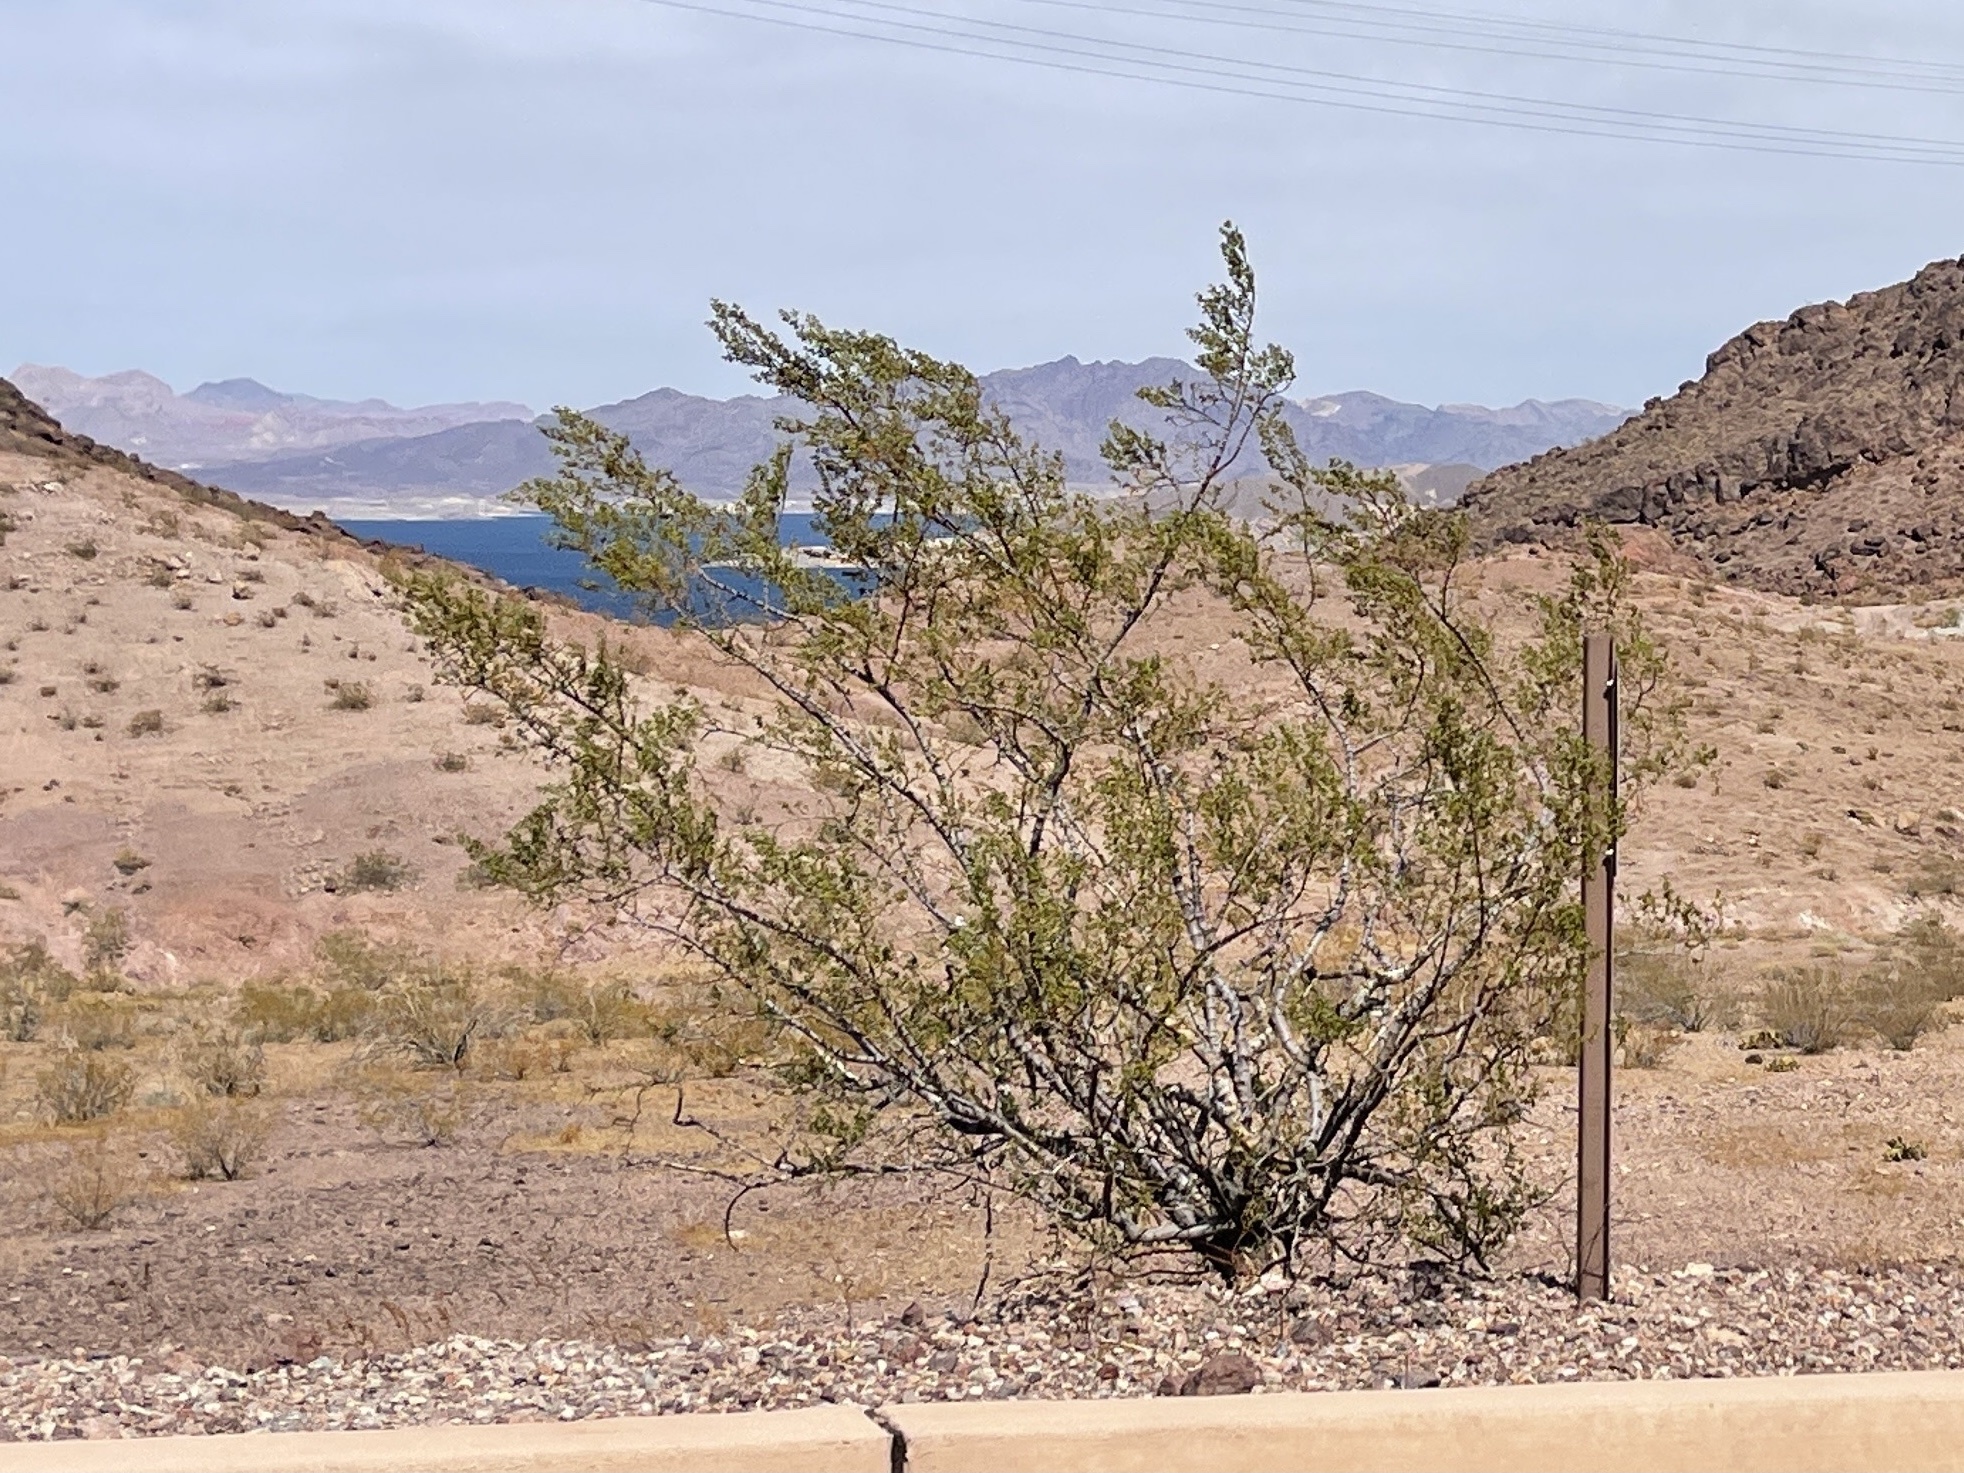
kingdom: Plantae
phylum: Tracheophyta
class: Magnoliopsida
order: Zygophyllales
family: Zygophyllaceae
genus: Larrea
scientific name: Larrea tridentata
